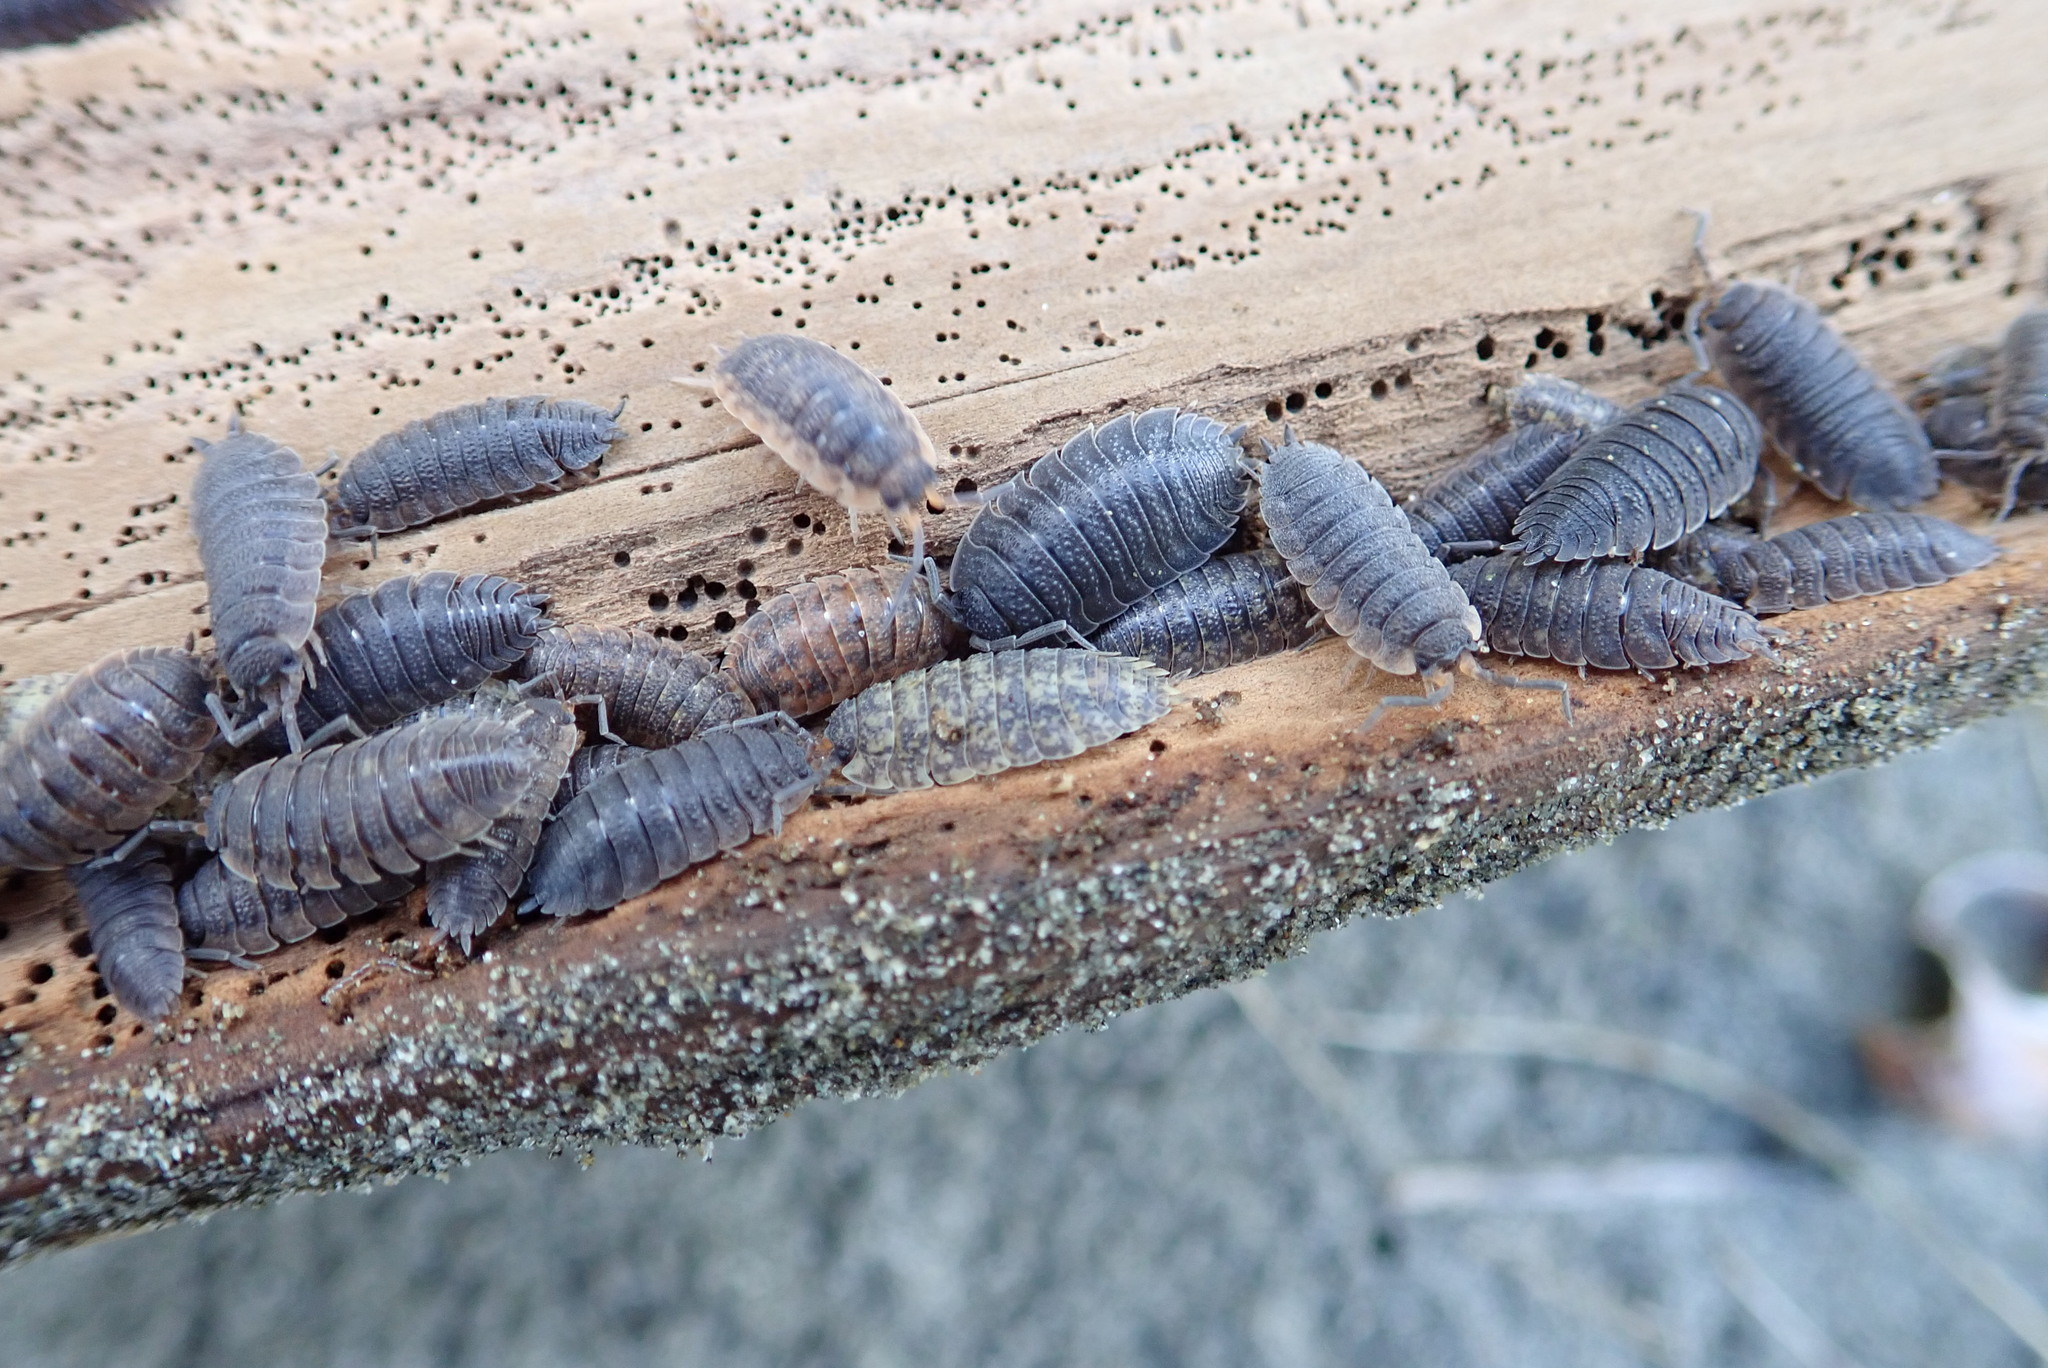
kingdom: Animalia
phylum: Arthropoda
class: Malacostraca
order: Isopoda
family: Porcellionidae
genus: Porcellio
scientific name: Porcellio scaber
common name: Common rough woodlouse
